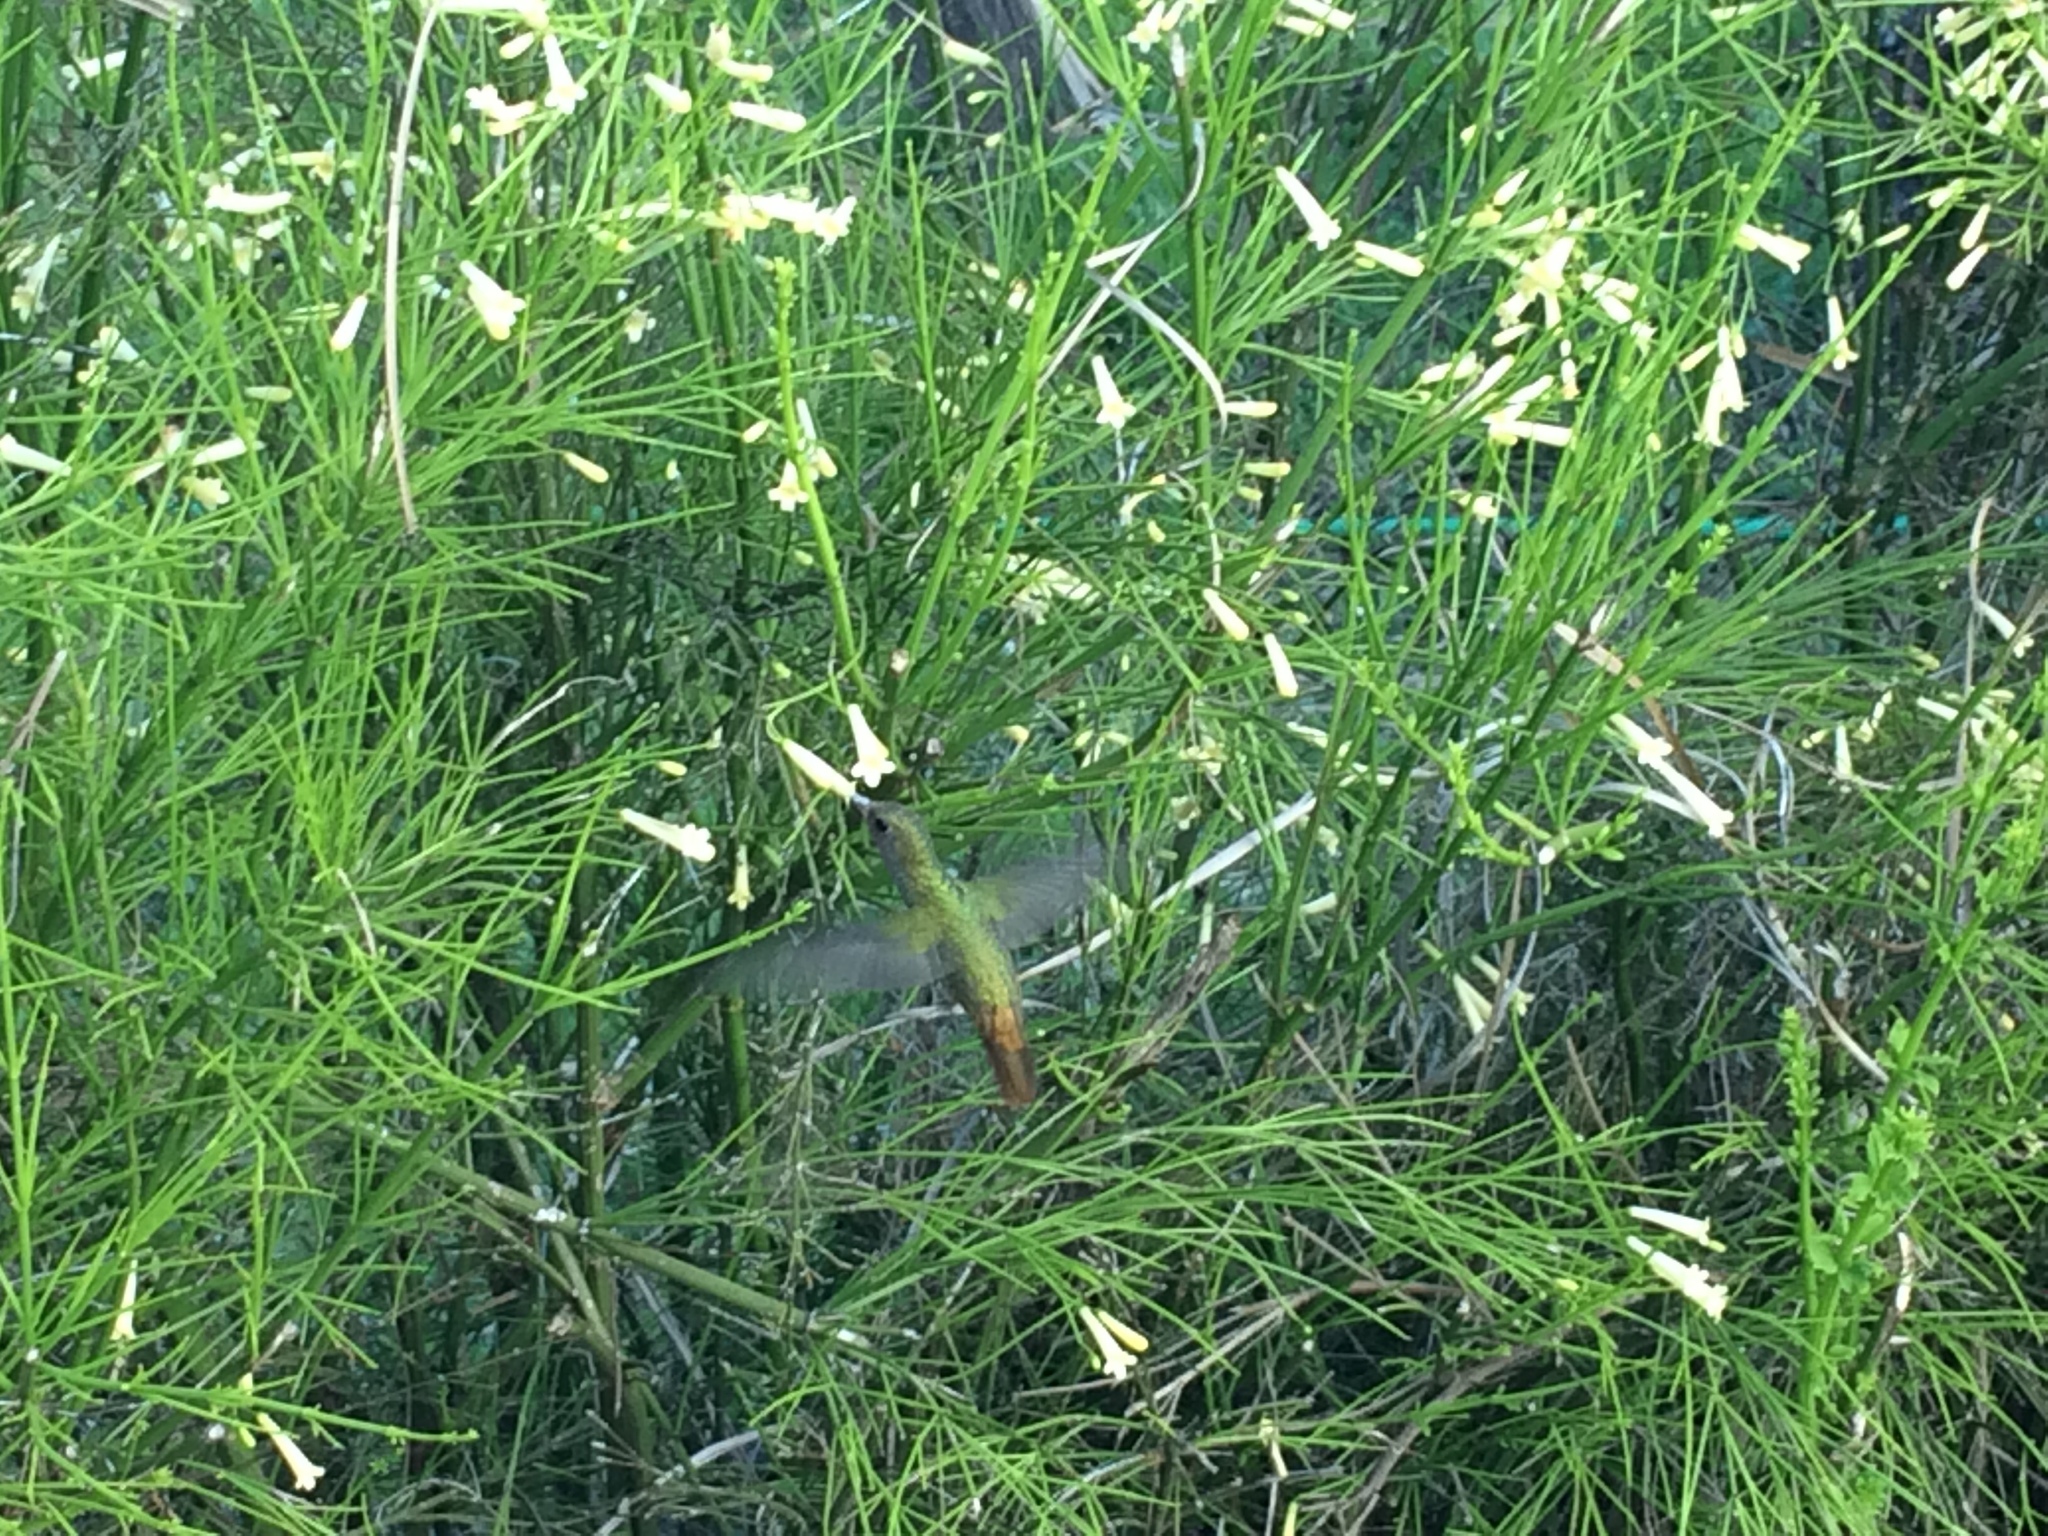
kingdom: Animalia
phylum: Chordata
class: Aves
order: Apodiformes
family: Trochilidae
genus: Hylocharis
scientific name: Hylocharis chrysura
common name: Gilded sapphire
